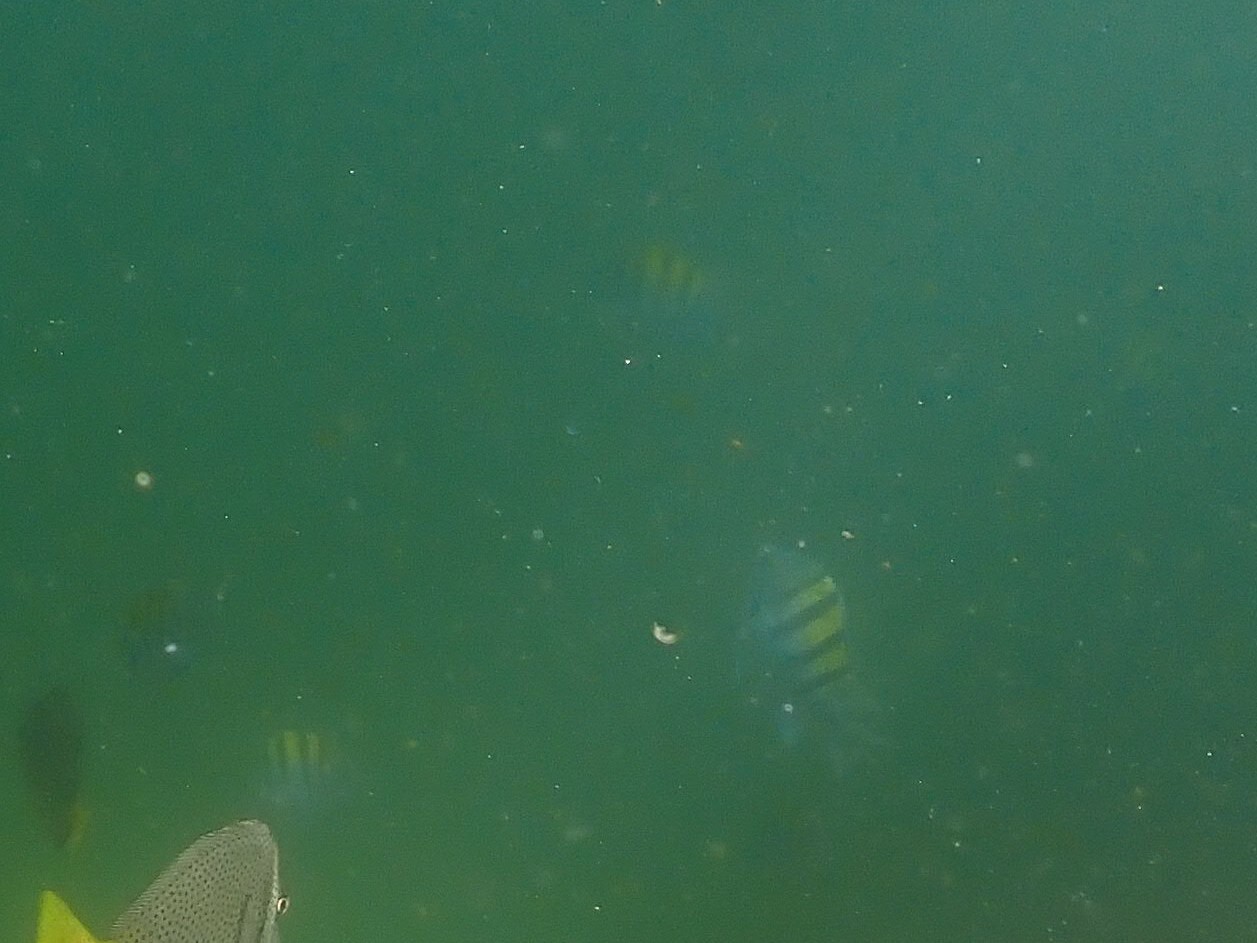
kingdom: Animalia
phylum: Chordata
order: Perciformes
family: Pomacentridae
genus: Abudefduf
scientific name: Abudefduf troschelii
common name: Panamic sergeant major
